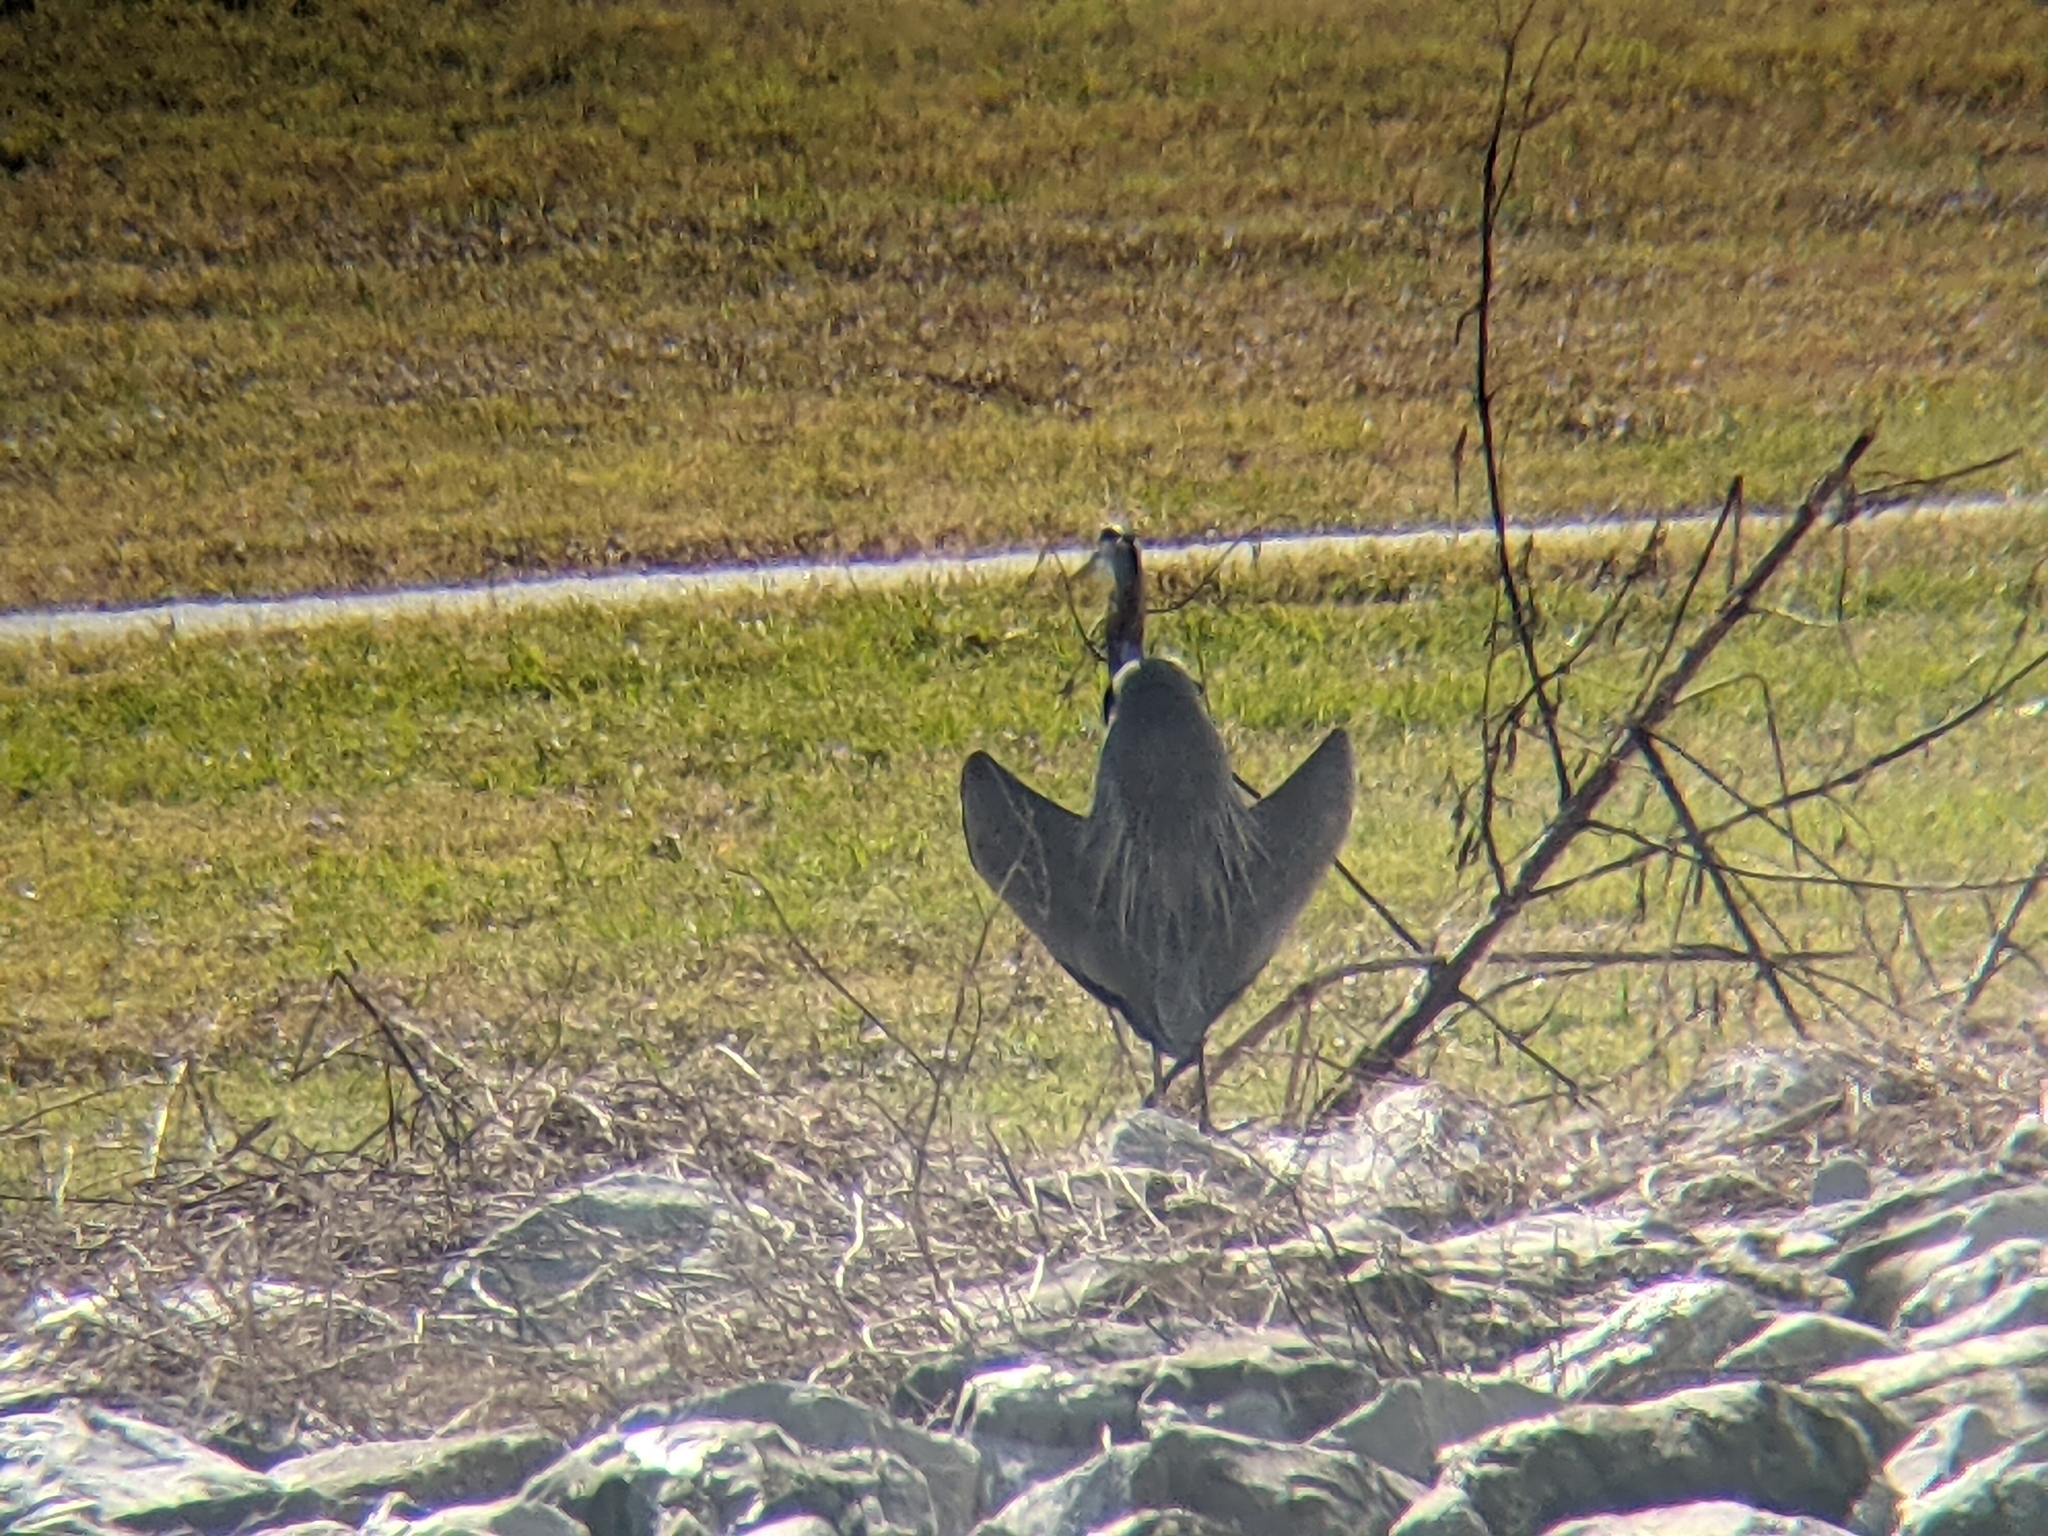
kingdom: Animalia
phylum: Chordata
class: Aves
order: Pelecaniformes
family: Ardeidae
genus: Ardea
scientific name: Ardea herodias
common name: Great blue heron
